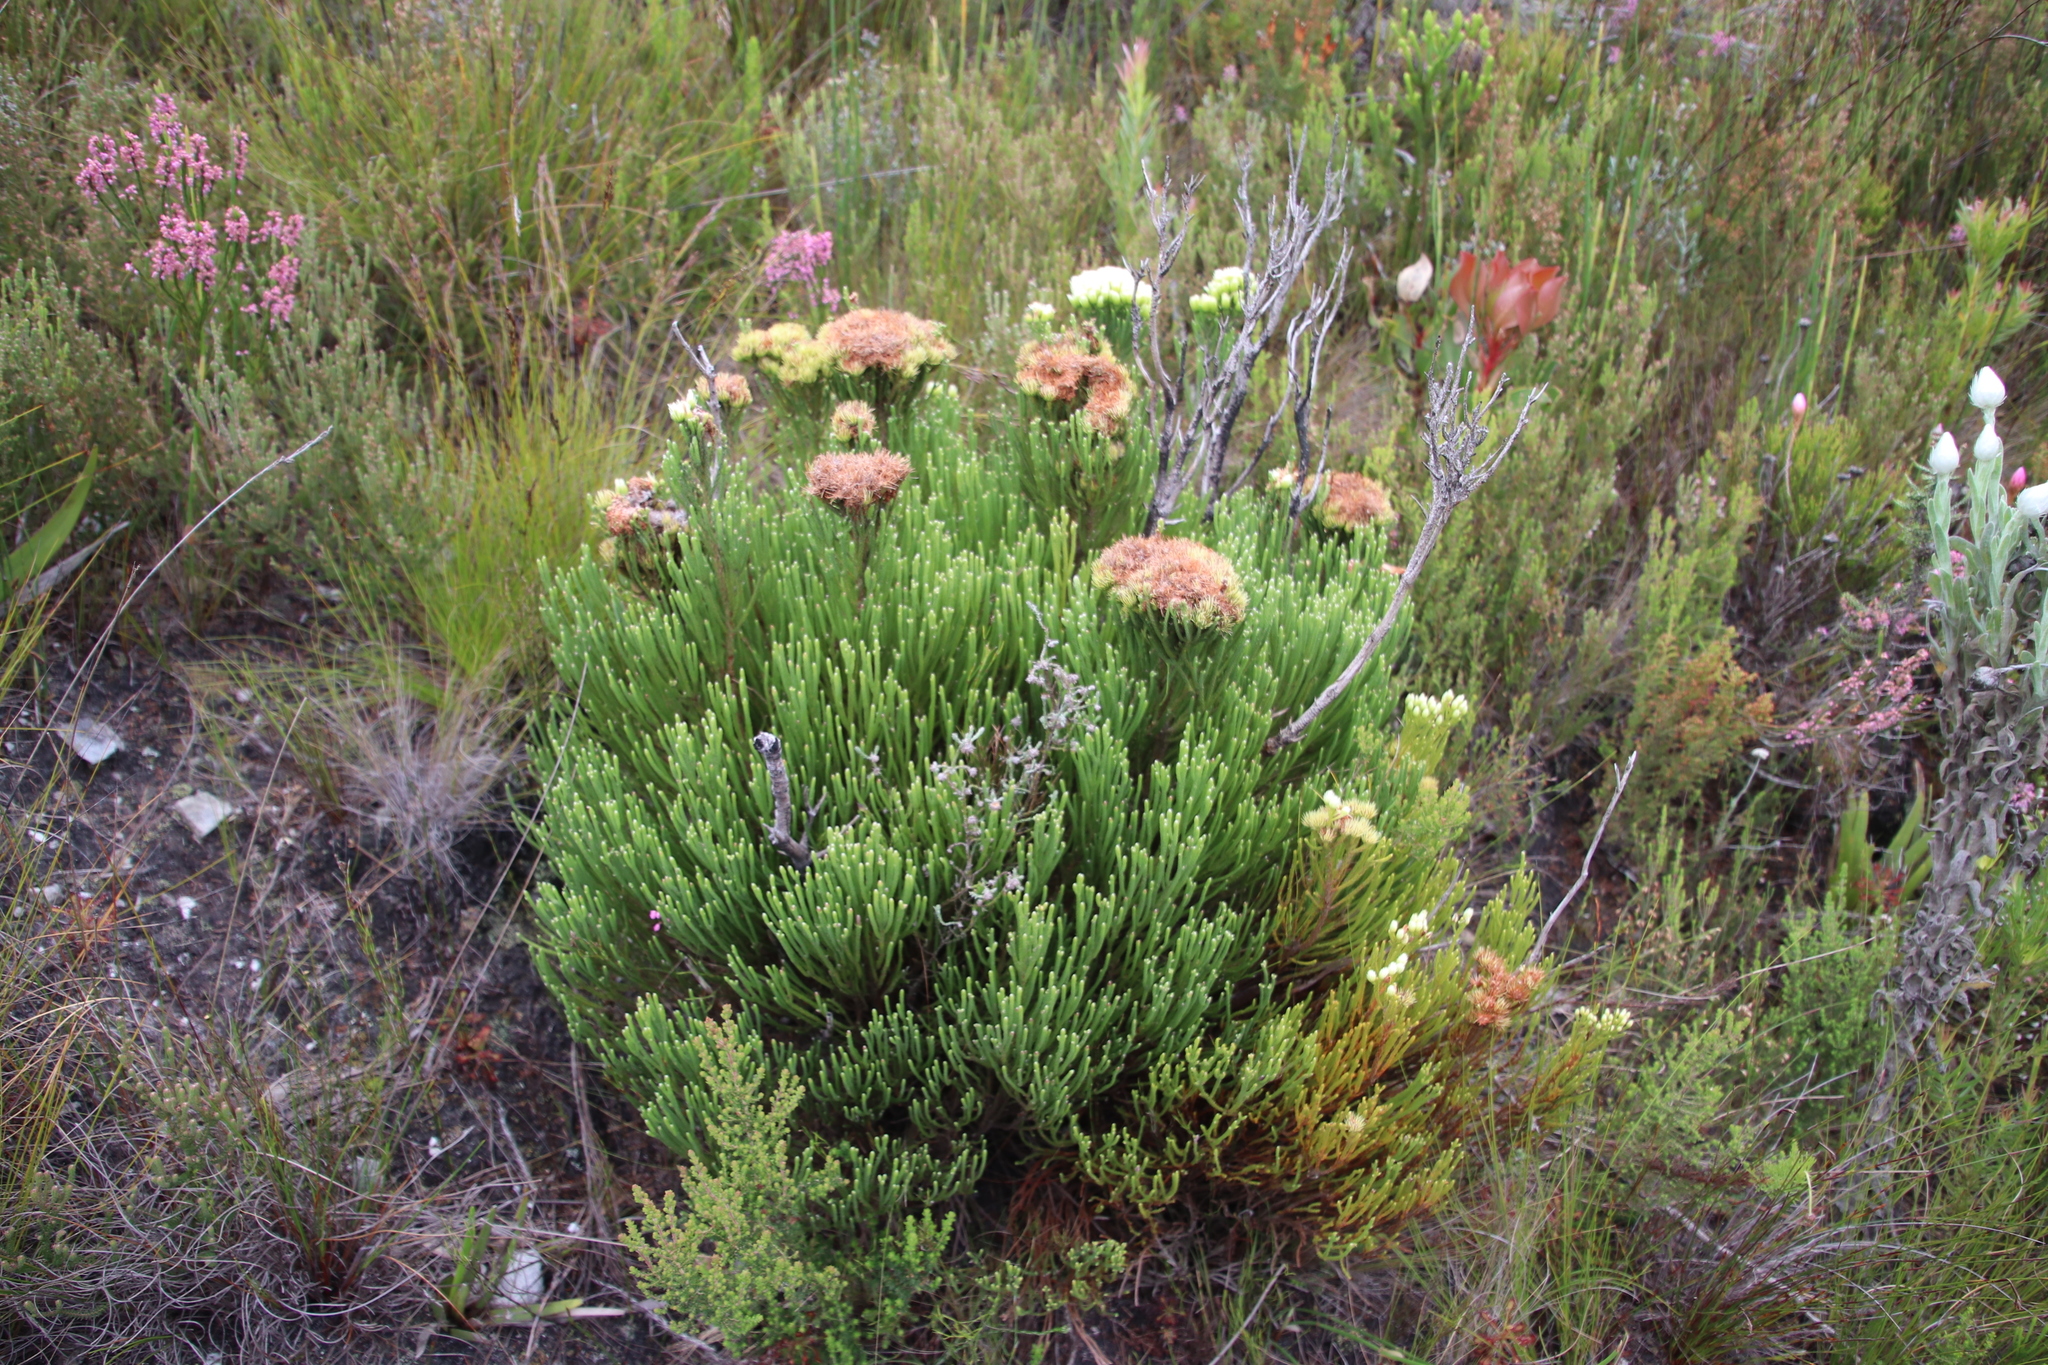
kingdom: Plantae
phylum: Tracheophyta
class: Magnoliopsida
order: Bruniales
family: Bruniaceae
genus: Brunia
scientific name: Brunia paleacea
